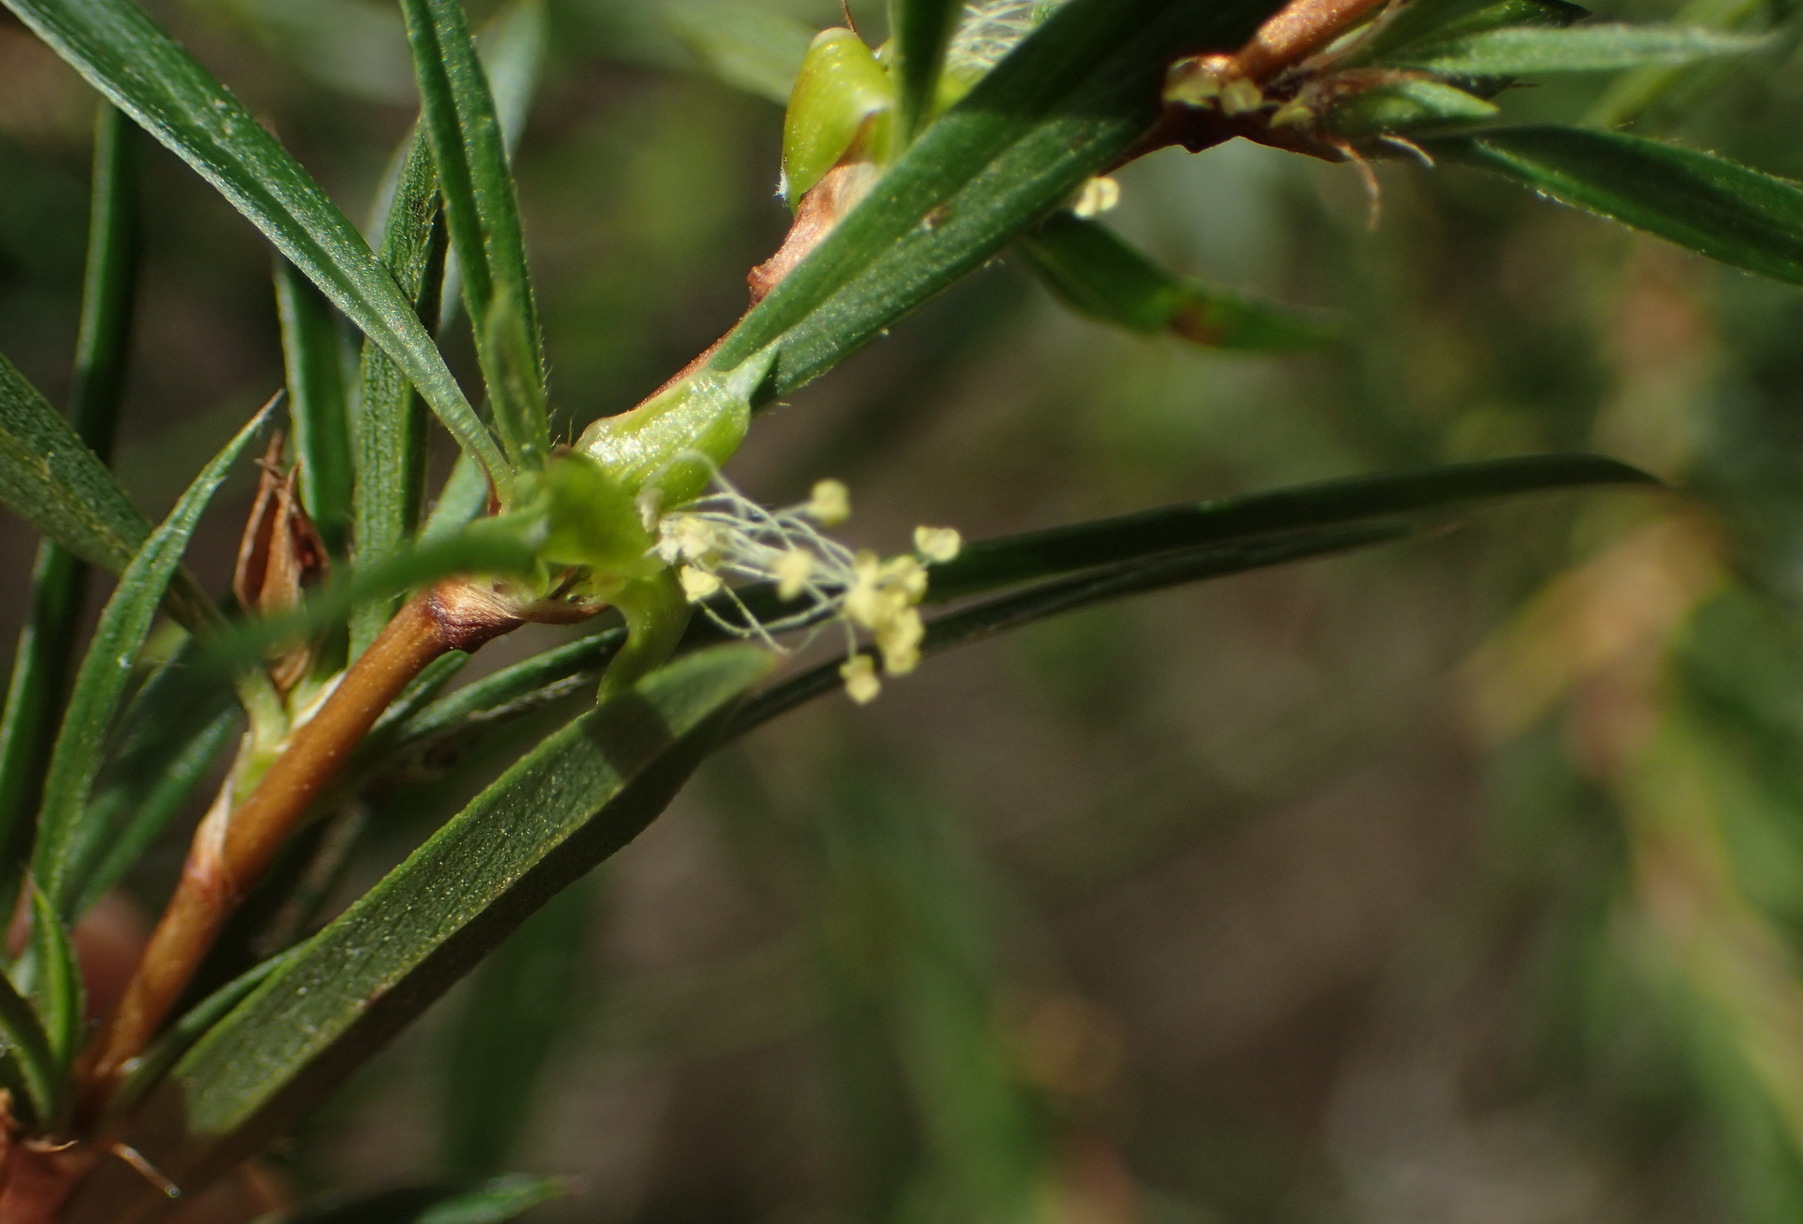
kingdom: Plantae
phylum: Tracheophyta
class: Magnoliopsida
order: Rosales
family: Rosaceae
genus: Cliffortia
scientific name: Cliffortia strobilifera
